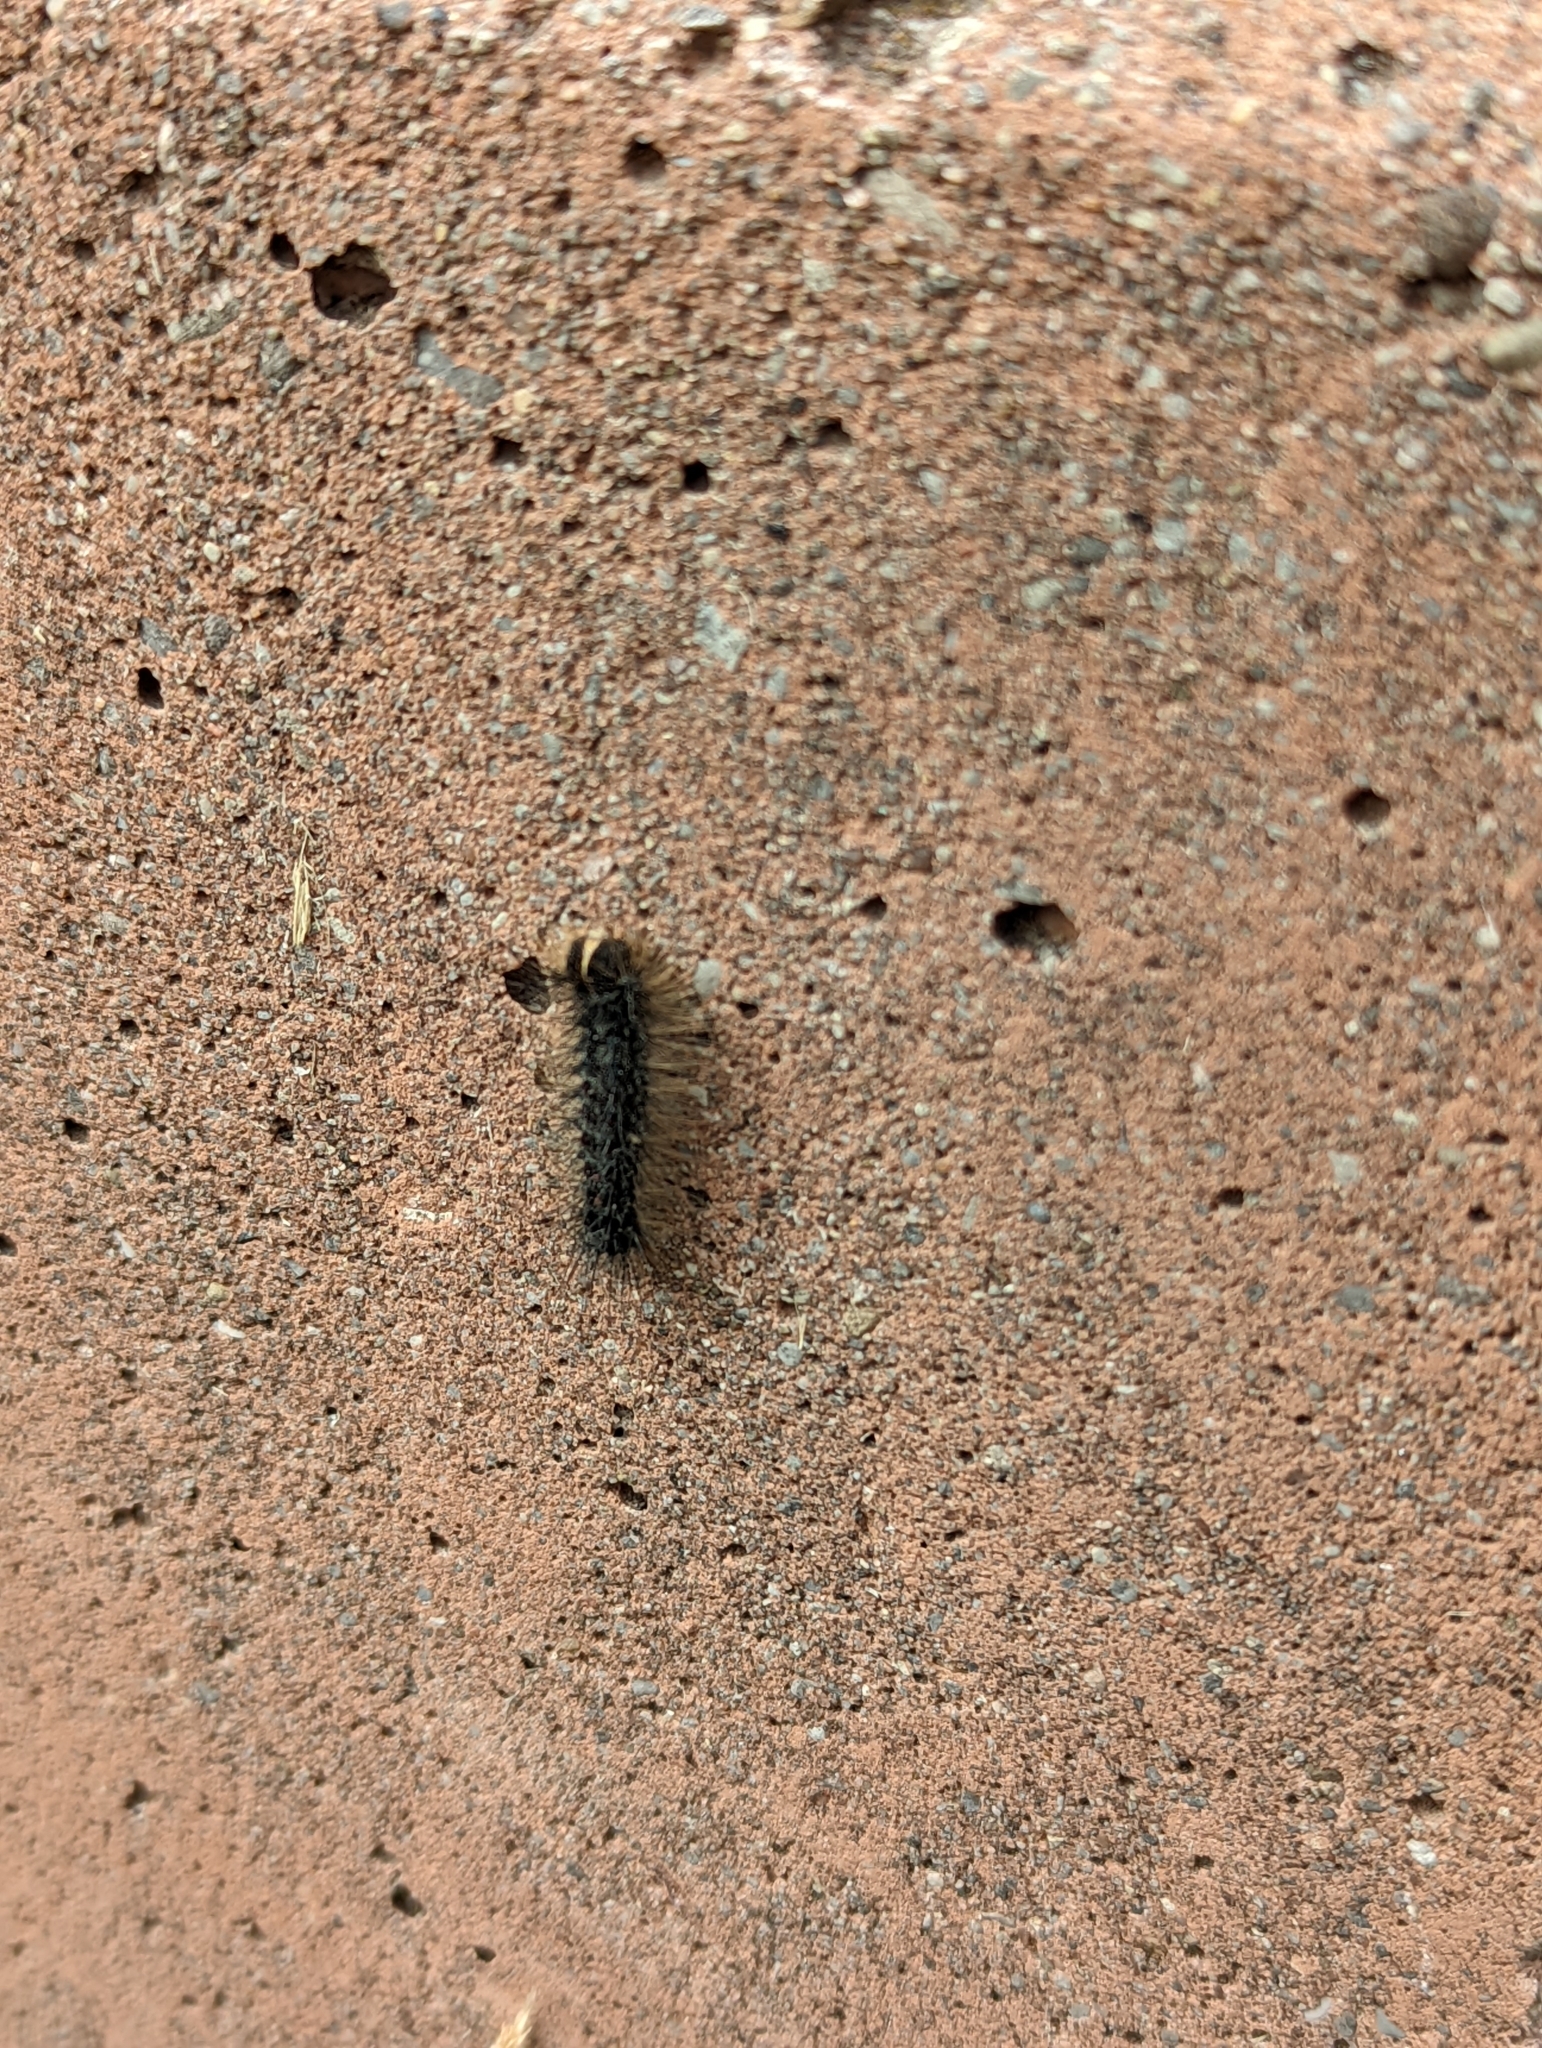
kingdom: Animalia
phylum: Arthropoda
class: Insecta
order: Lepidoptera
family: Erebidae
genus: Lymantria
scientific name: Lymantria dispar
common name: Gypsy moth
